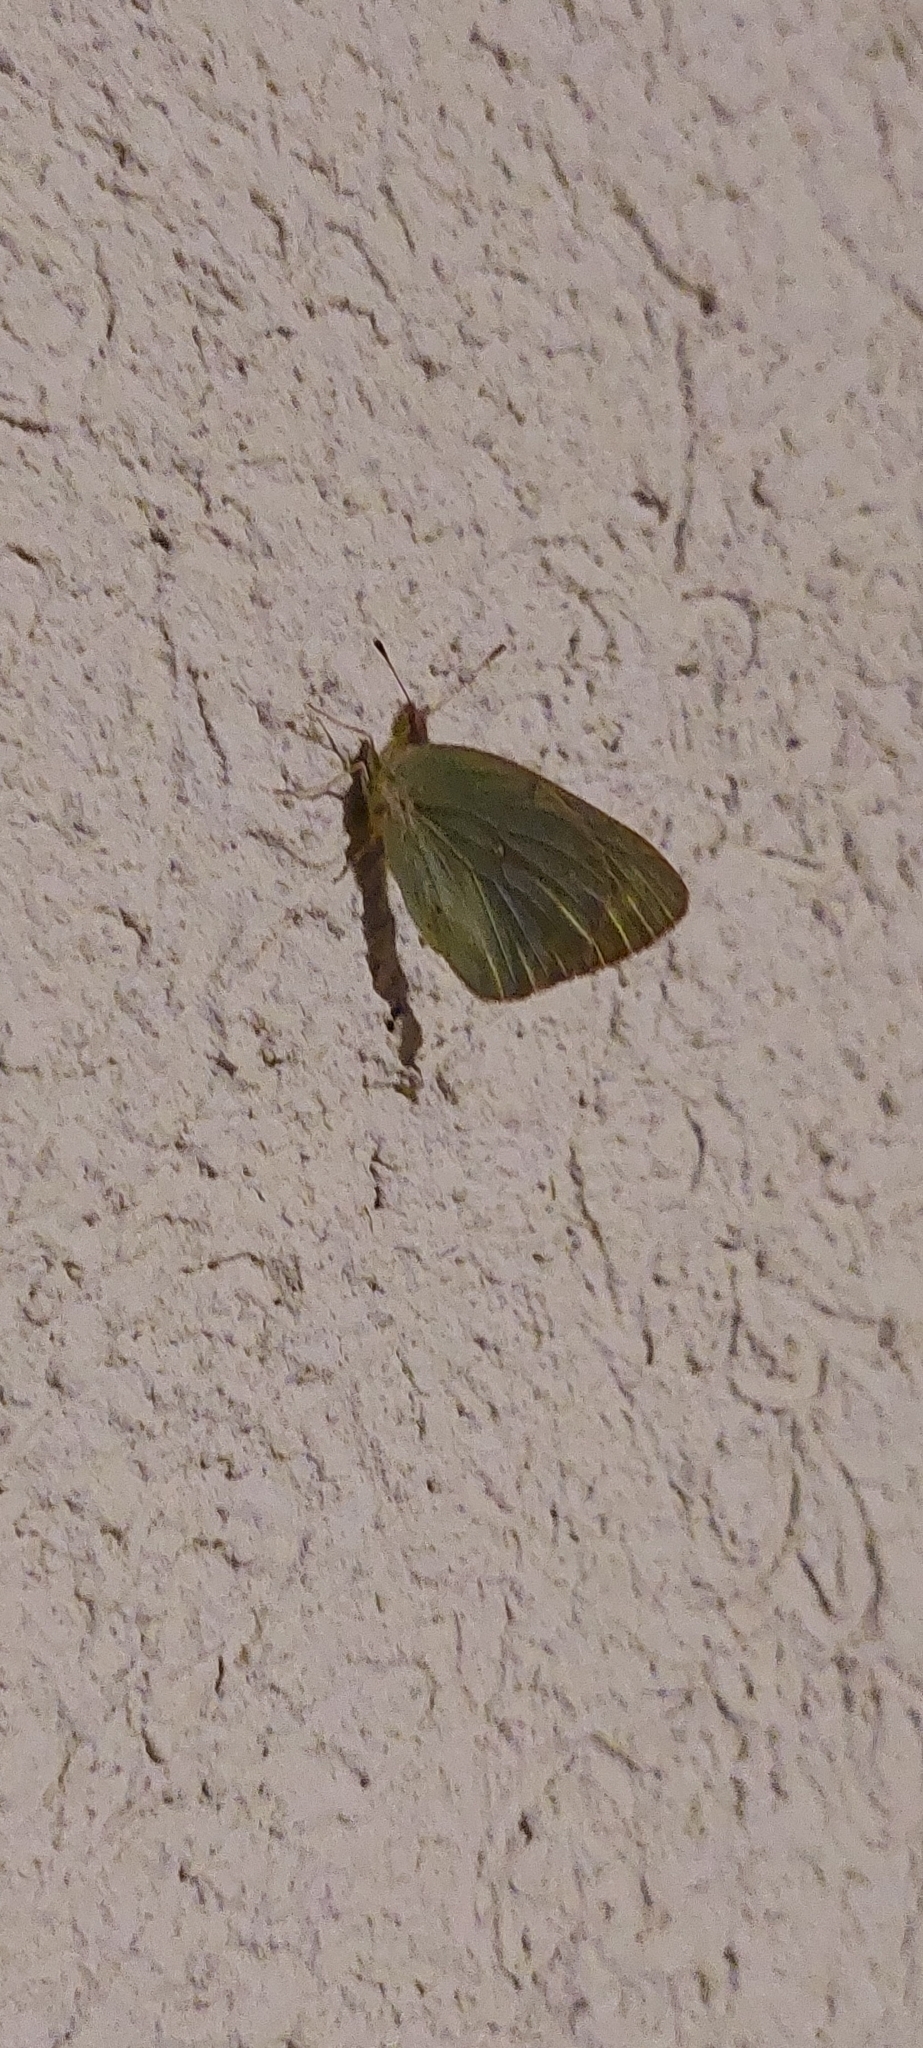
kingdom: Animalia
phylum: Arthropoda
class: Insecta
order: Lepidoptera
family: Pieridae
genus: Colias
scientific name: Colias lesbia
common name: Lesbia clouded yellow
